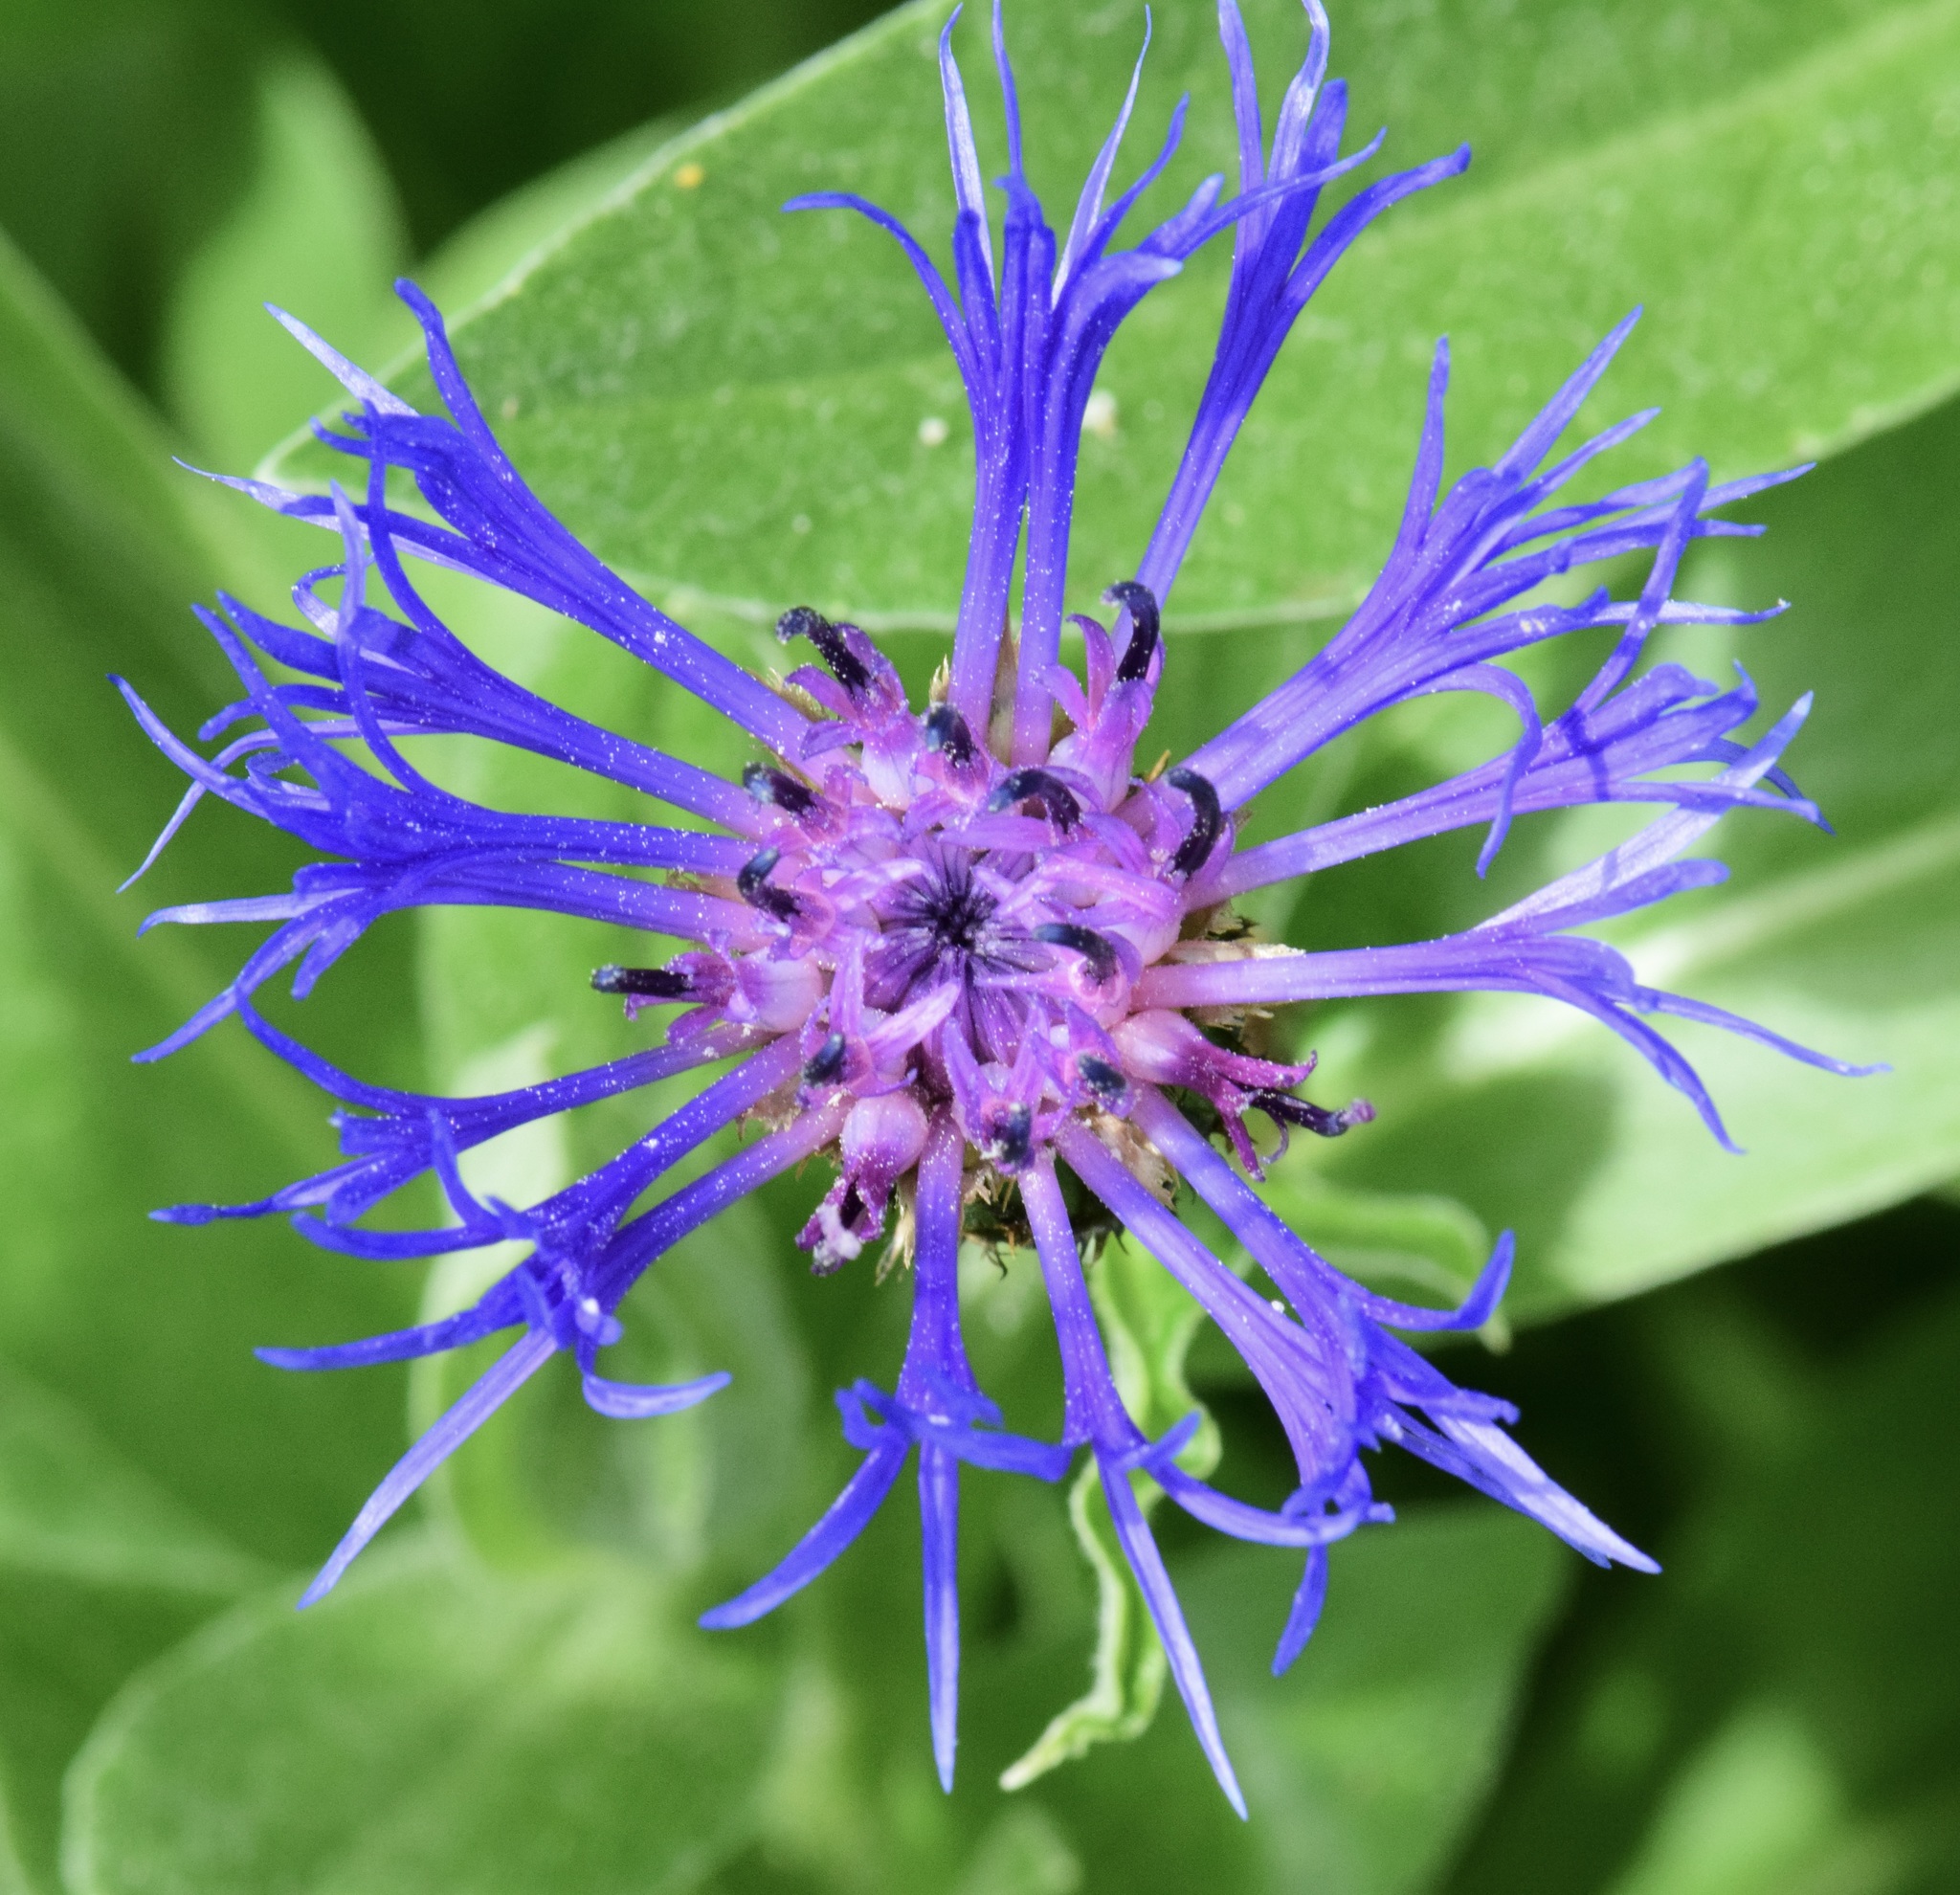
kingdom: Plantae
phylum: Tracheophyta
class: Magnoliopsida
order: Asterales
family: Asteraceae
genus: Centaurea
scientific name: Centaurea montana
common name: Perennial cornflower
